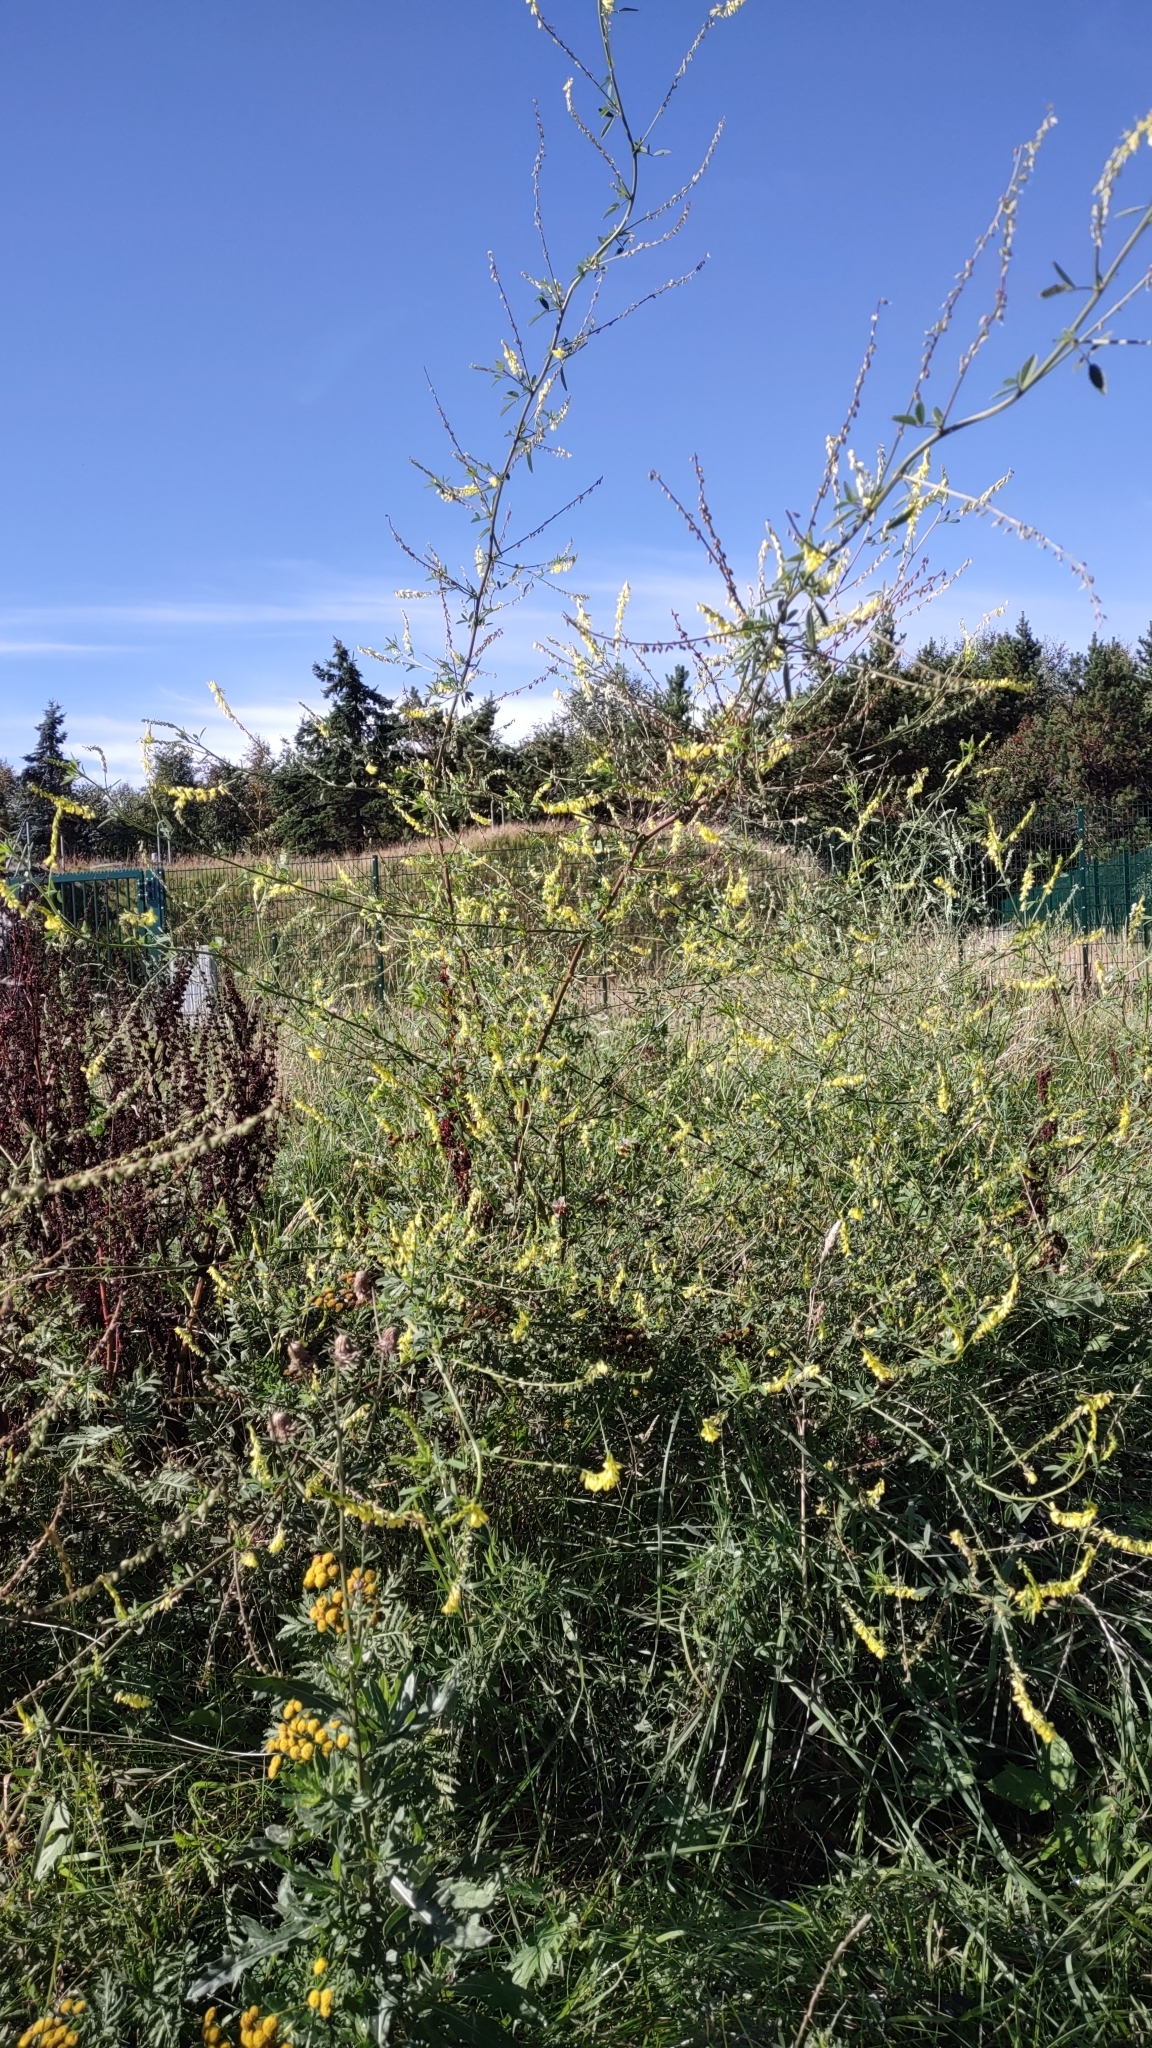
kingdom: Plantae
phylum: Tracheophyta
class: Magnoliopsida
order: Fabales
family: Fabaceae
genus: Melilotus
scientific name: Melilotus officinalis
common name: Sweetclover
